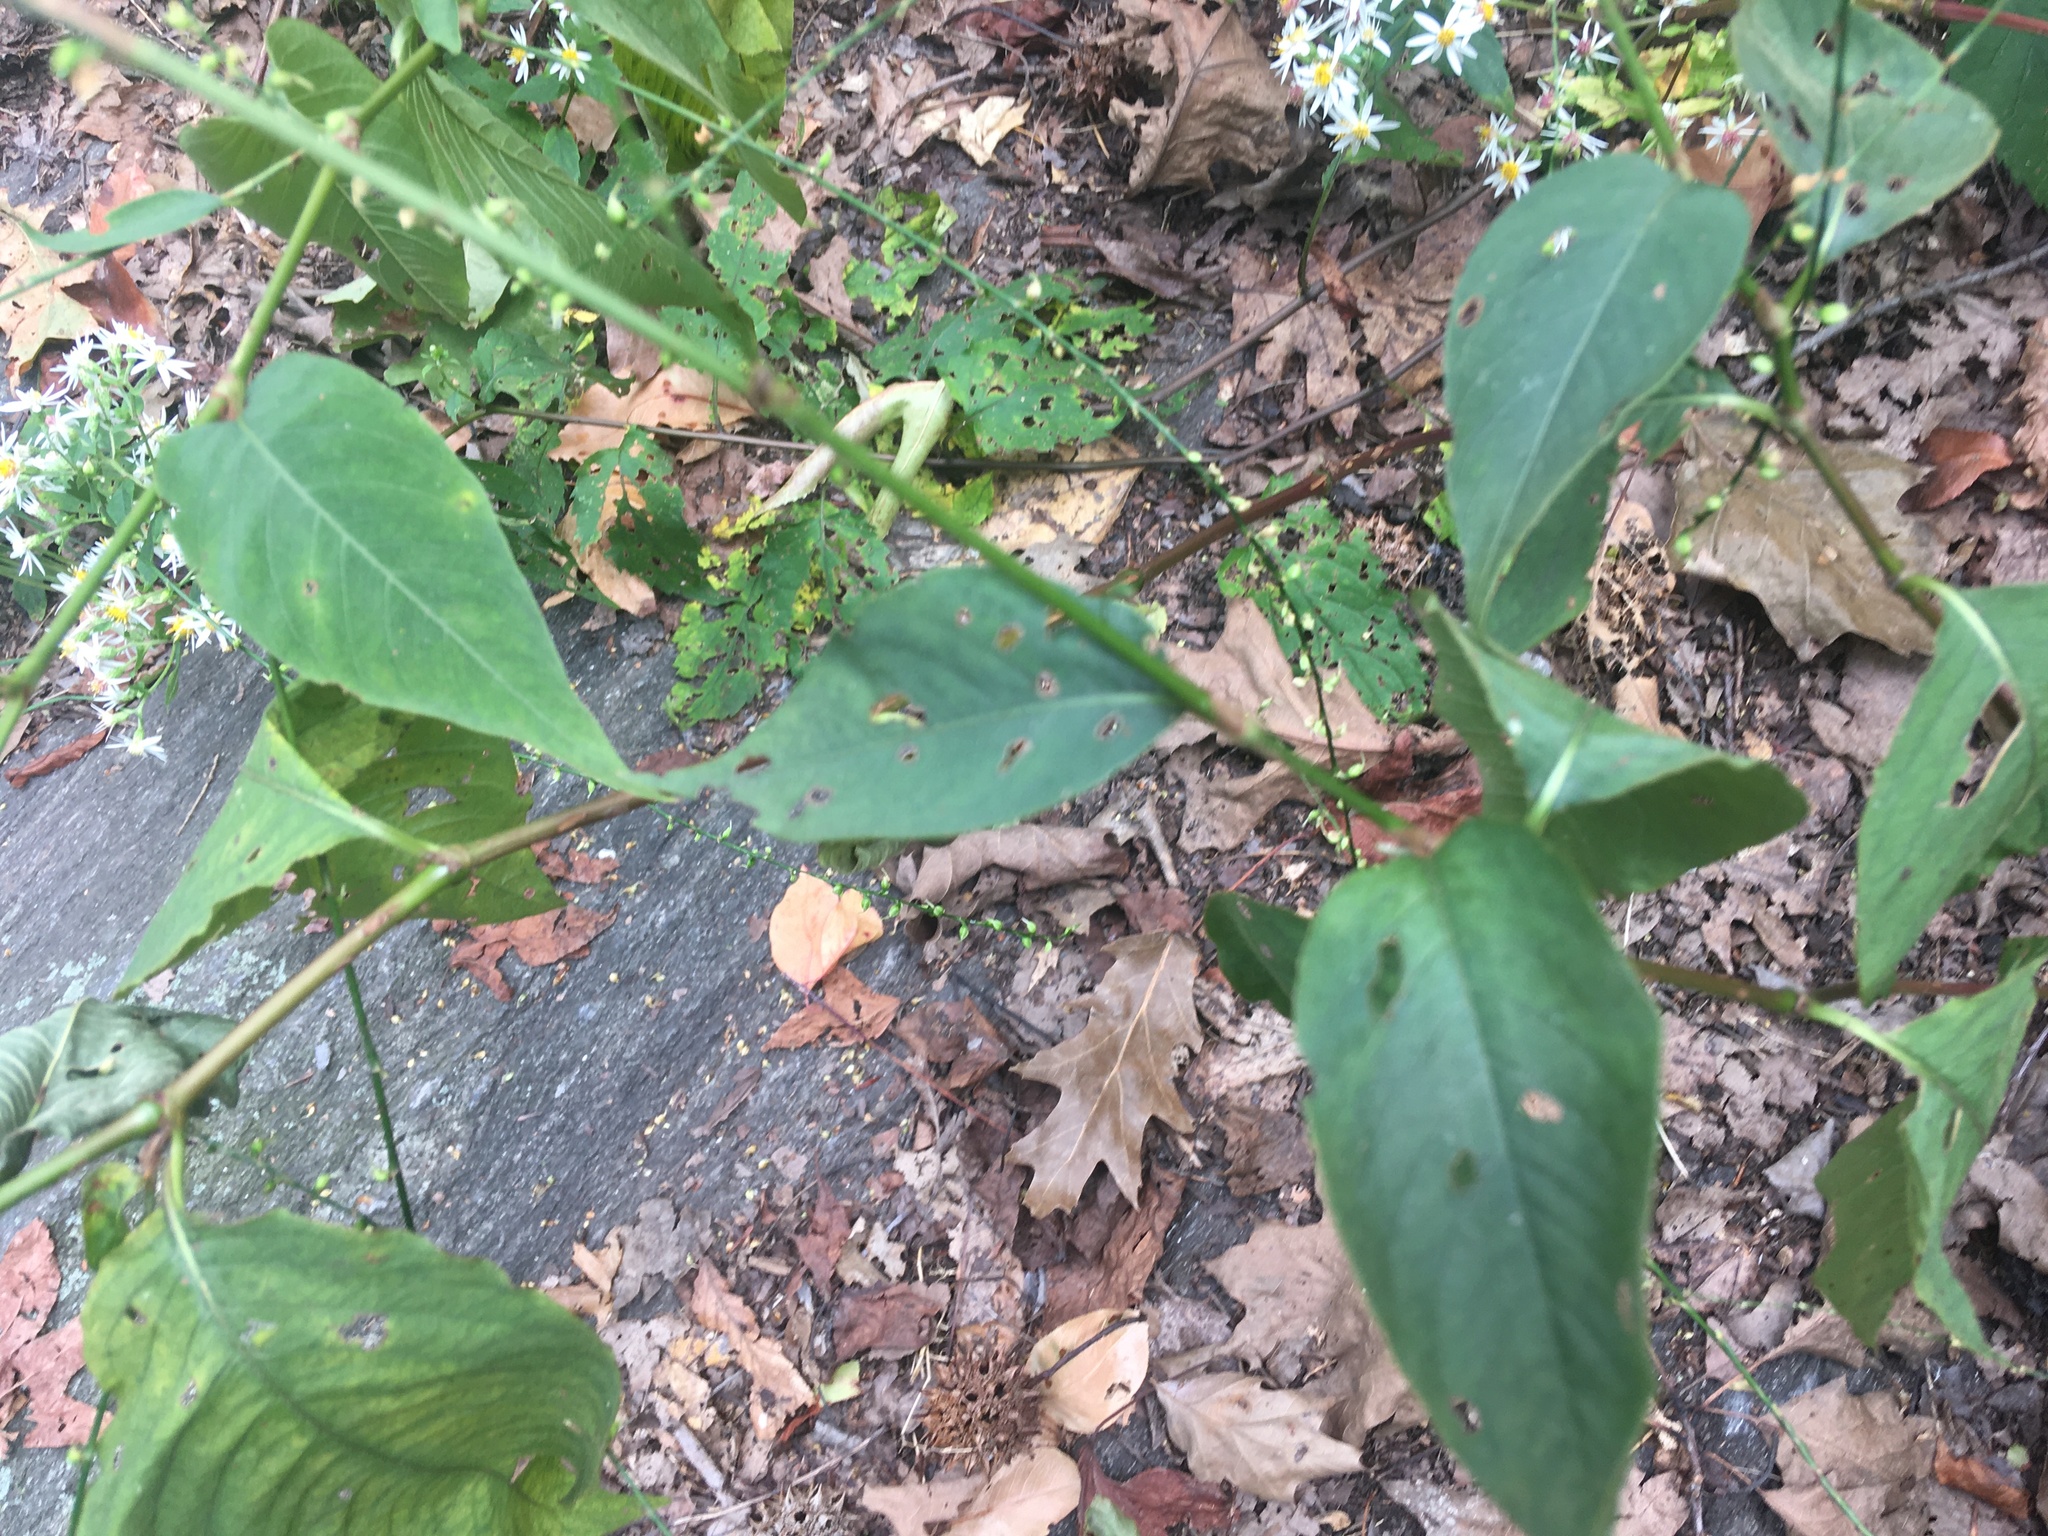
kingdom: Plantae
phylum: Tracheophyta
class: Magnoliopsida
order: Caryophyllales
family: Polygonaceae
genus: Persicaria
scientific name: Persicaria virginiana
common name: Jumpseed
